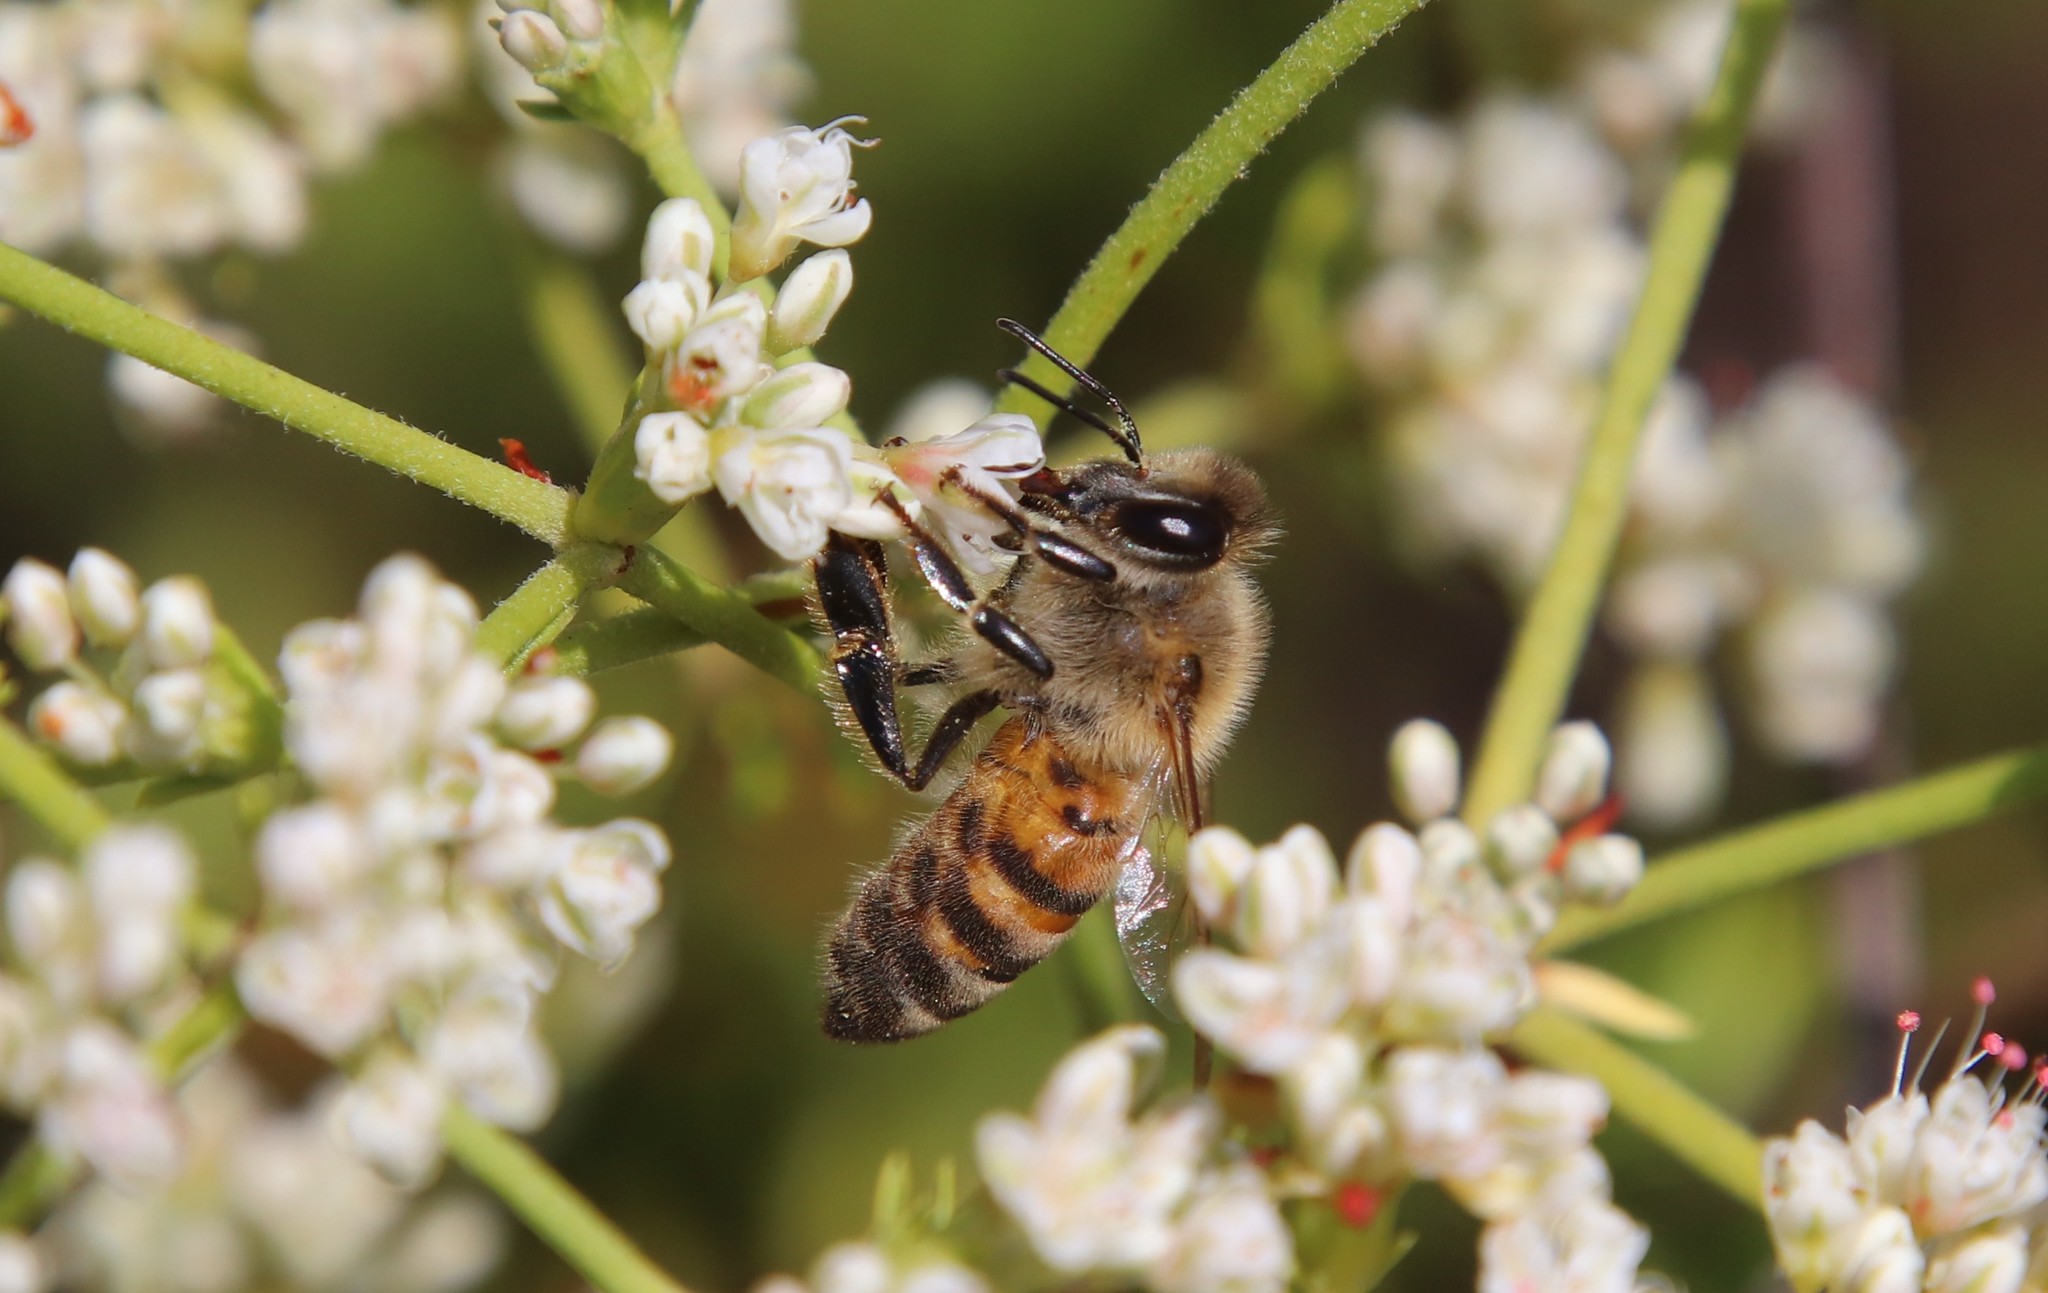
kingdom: Animalia
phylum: Arthropoda
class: Insecta
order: Hymenoptera
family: Apidae
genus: Apis
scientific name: Apis mellifera
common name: Honey bee
